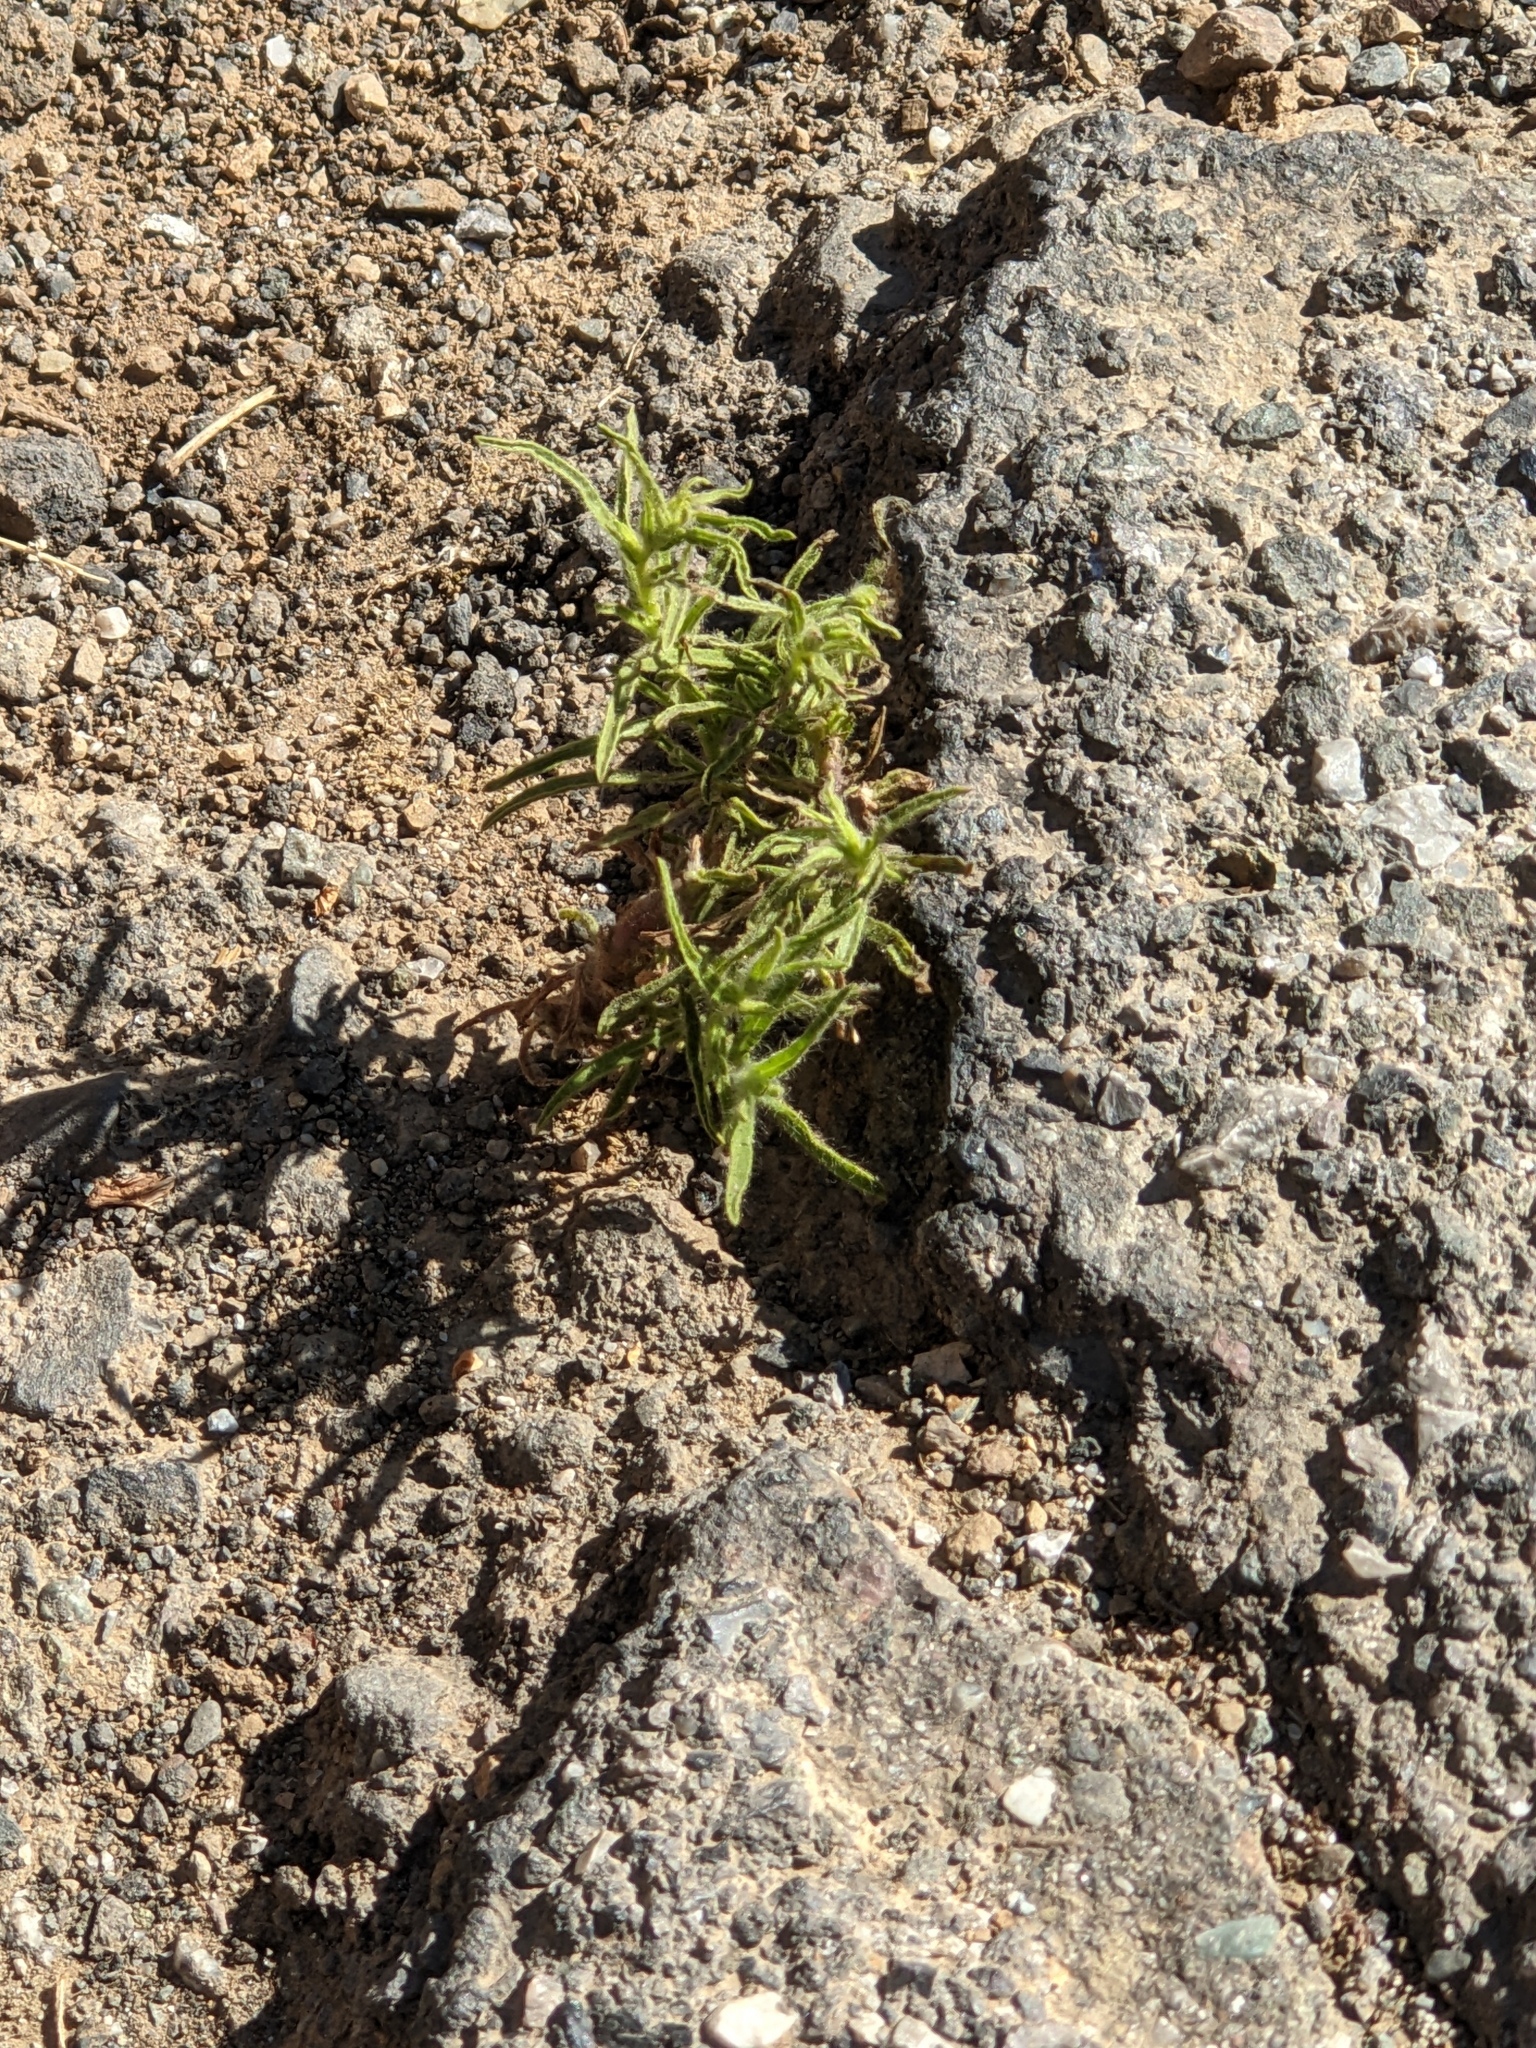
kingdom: Plantae
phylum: Tracheophyta
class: Magnoliopsida
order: Asterales
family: Asteraceae
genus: Dittrichia
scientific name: Dittrichia graveolens
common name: Stinking fleabane
